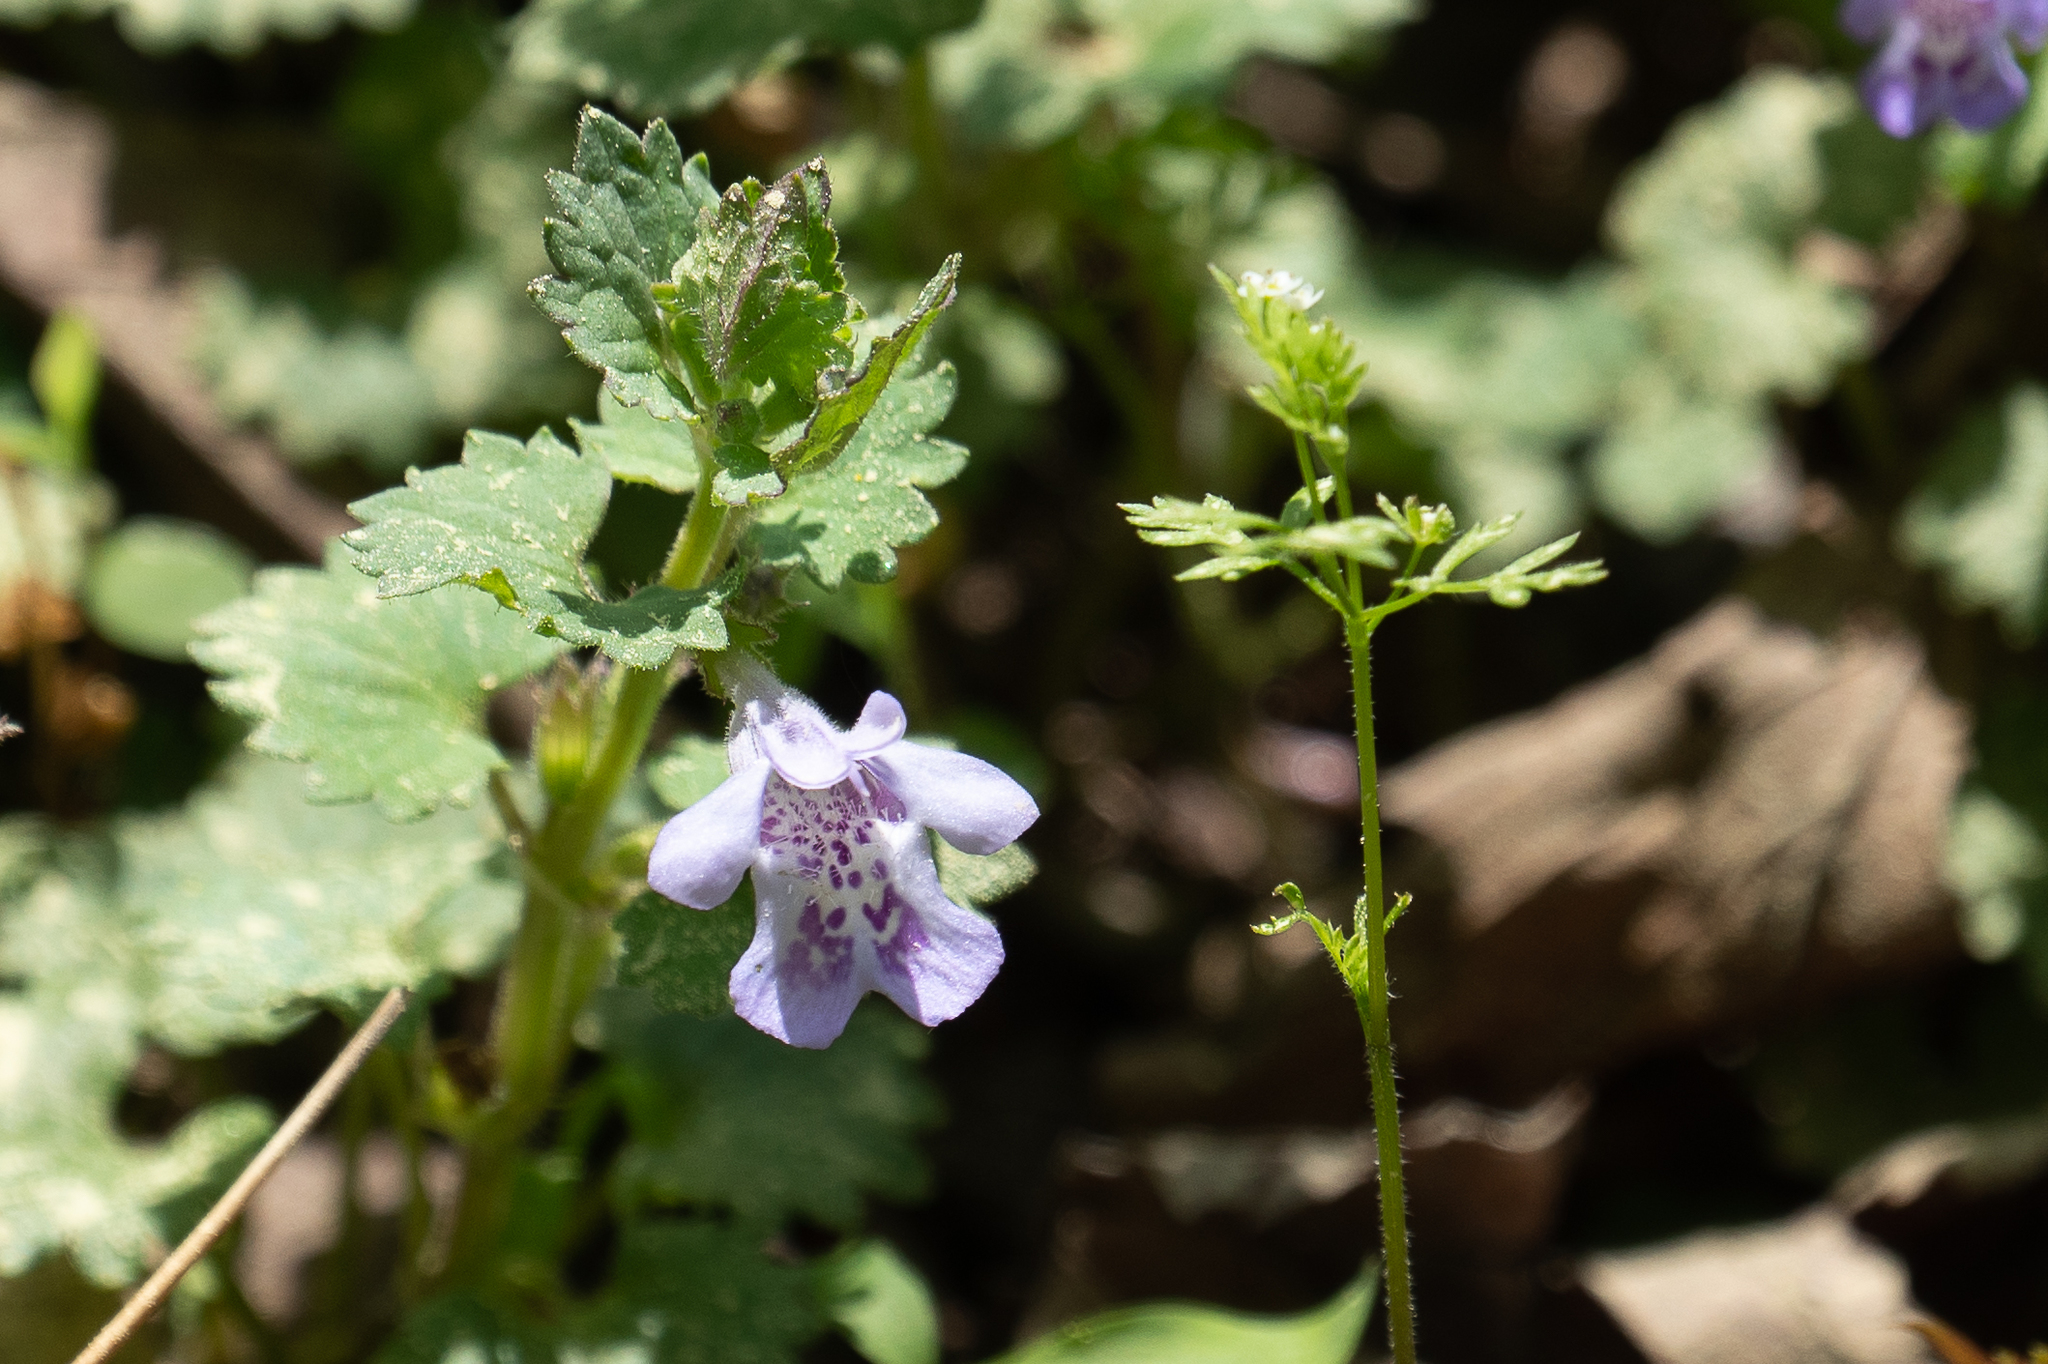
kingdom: Plantae
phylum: Tracheophyta
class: Magnoliopsida
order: Lamiales
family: Lamiaceae
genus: Glechoma
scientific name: Glechoma hederacea
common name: Ground ivy
